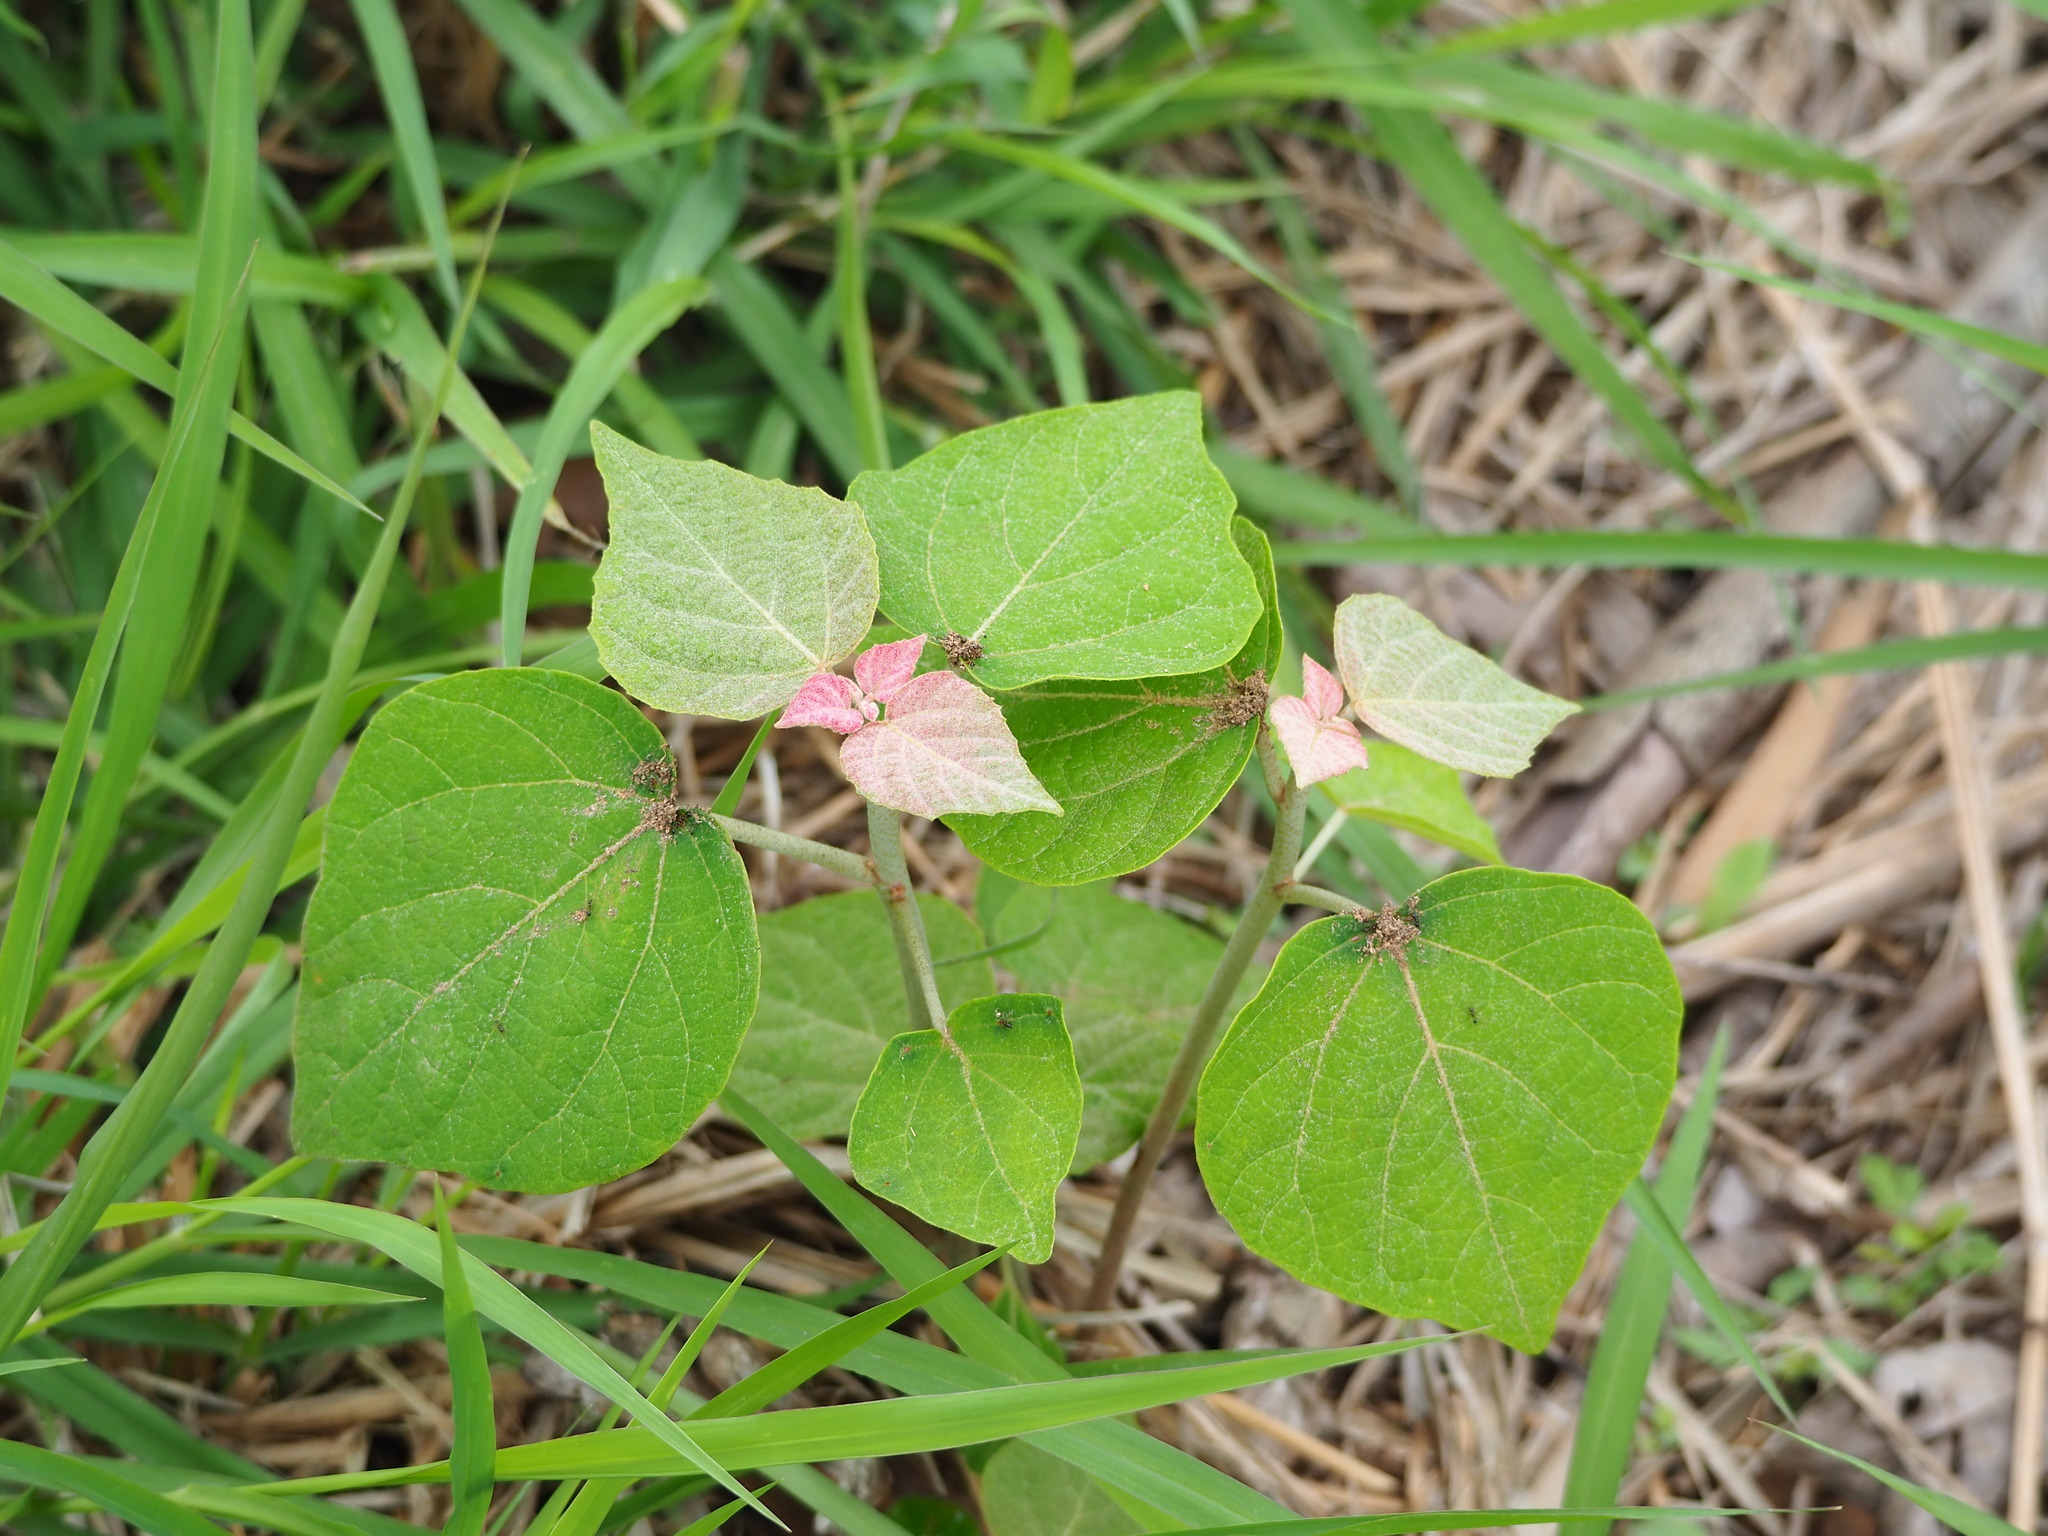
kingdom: Plantae
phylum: Tracheophyta
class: Magnoliopsida
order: Malpighiales
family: Euphorbiaceae
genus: Mallotus
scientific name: Mallotus japonicus
